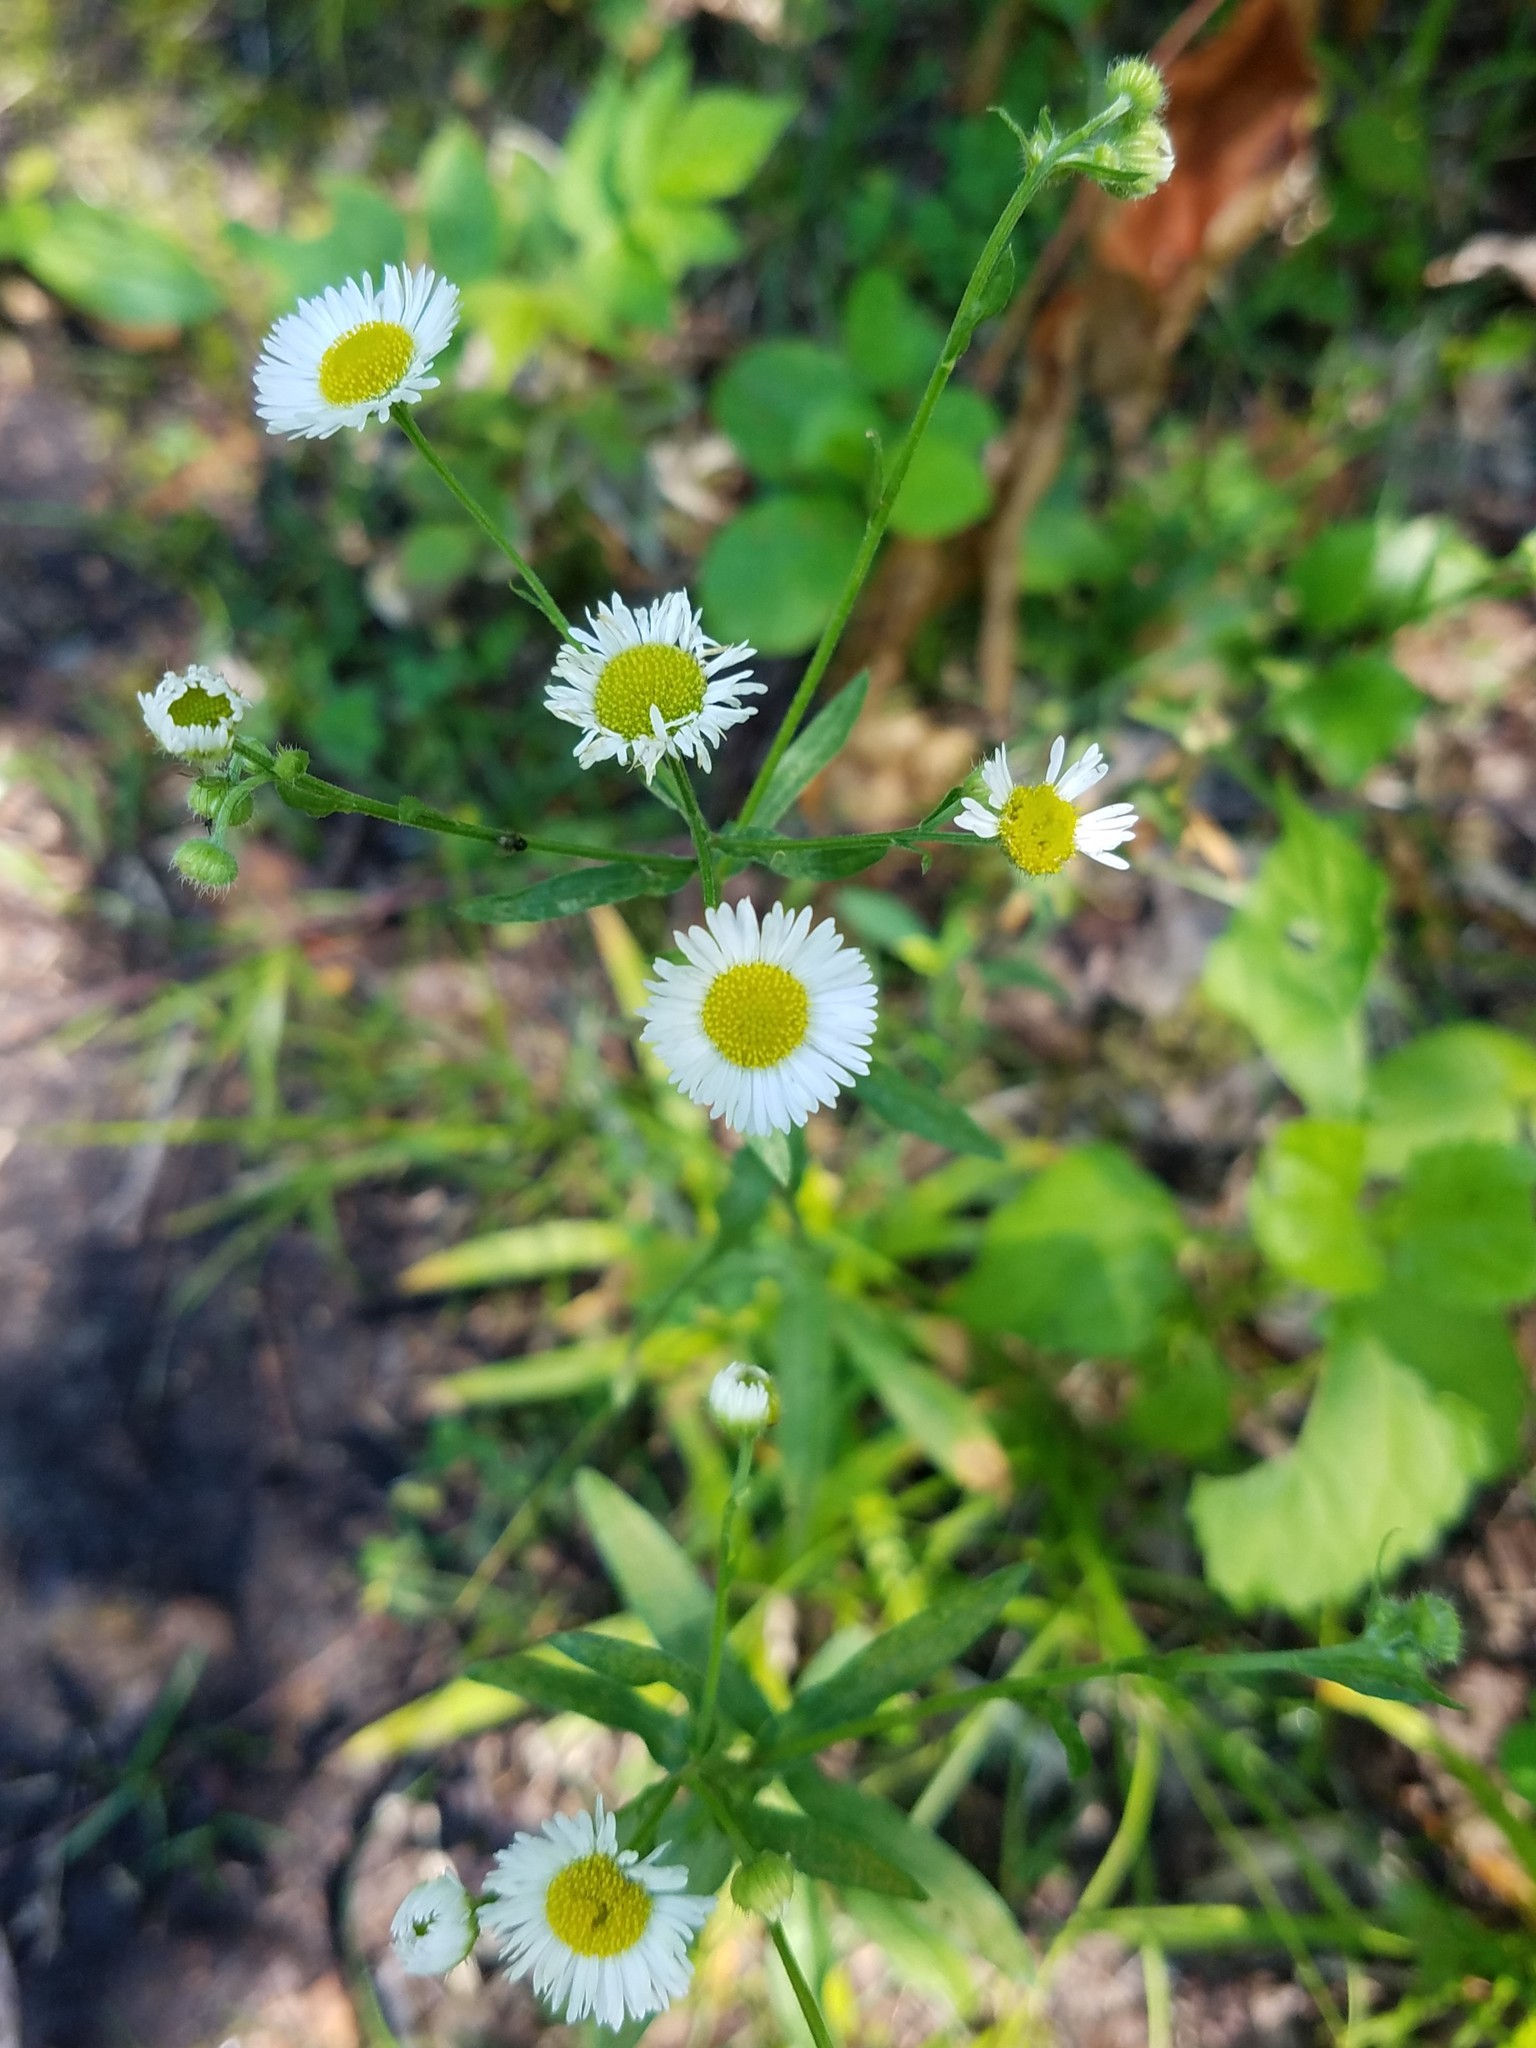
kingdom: Plantae
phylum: Tracheophyta
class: Magnoliopsida
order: Asterales
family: Asteraceae
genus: Erigeron
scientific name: Erigeron annuus
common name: Tall fleabane
